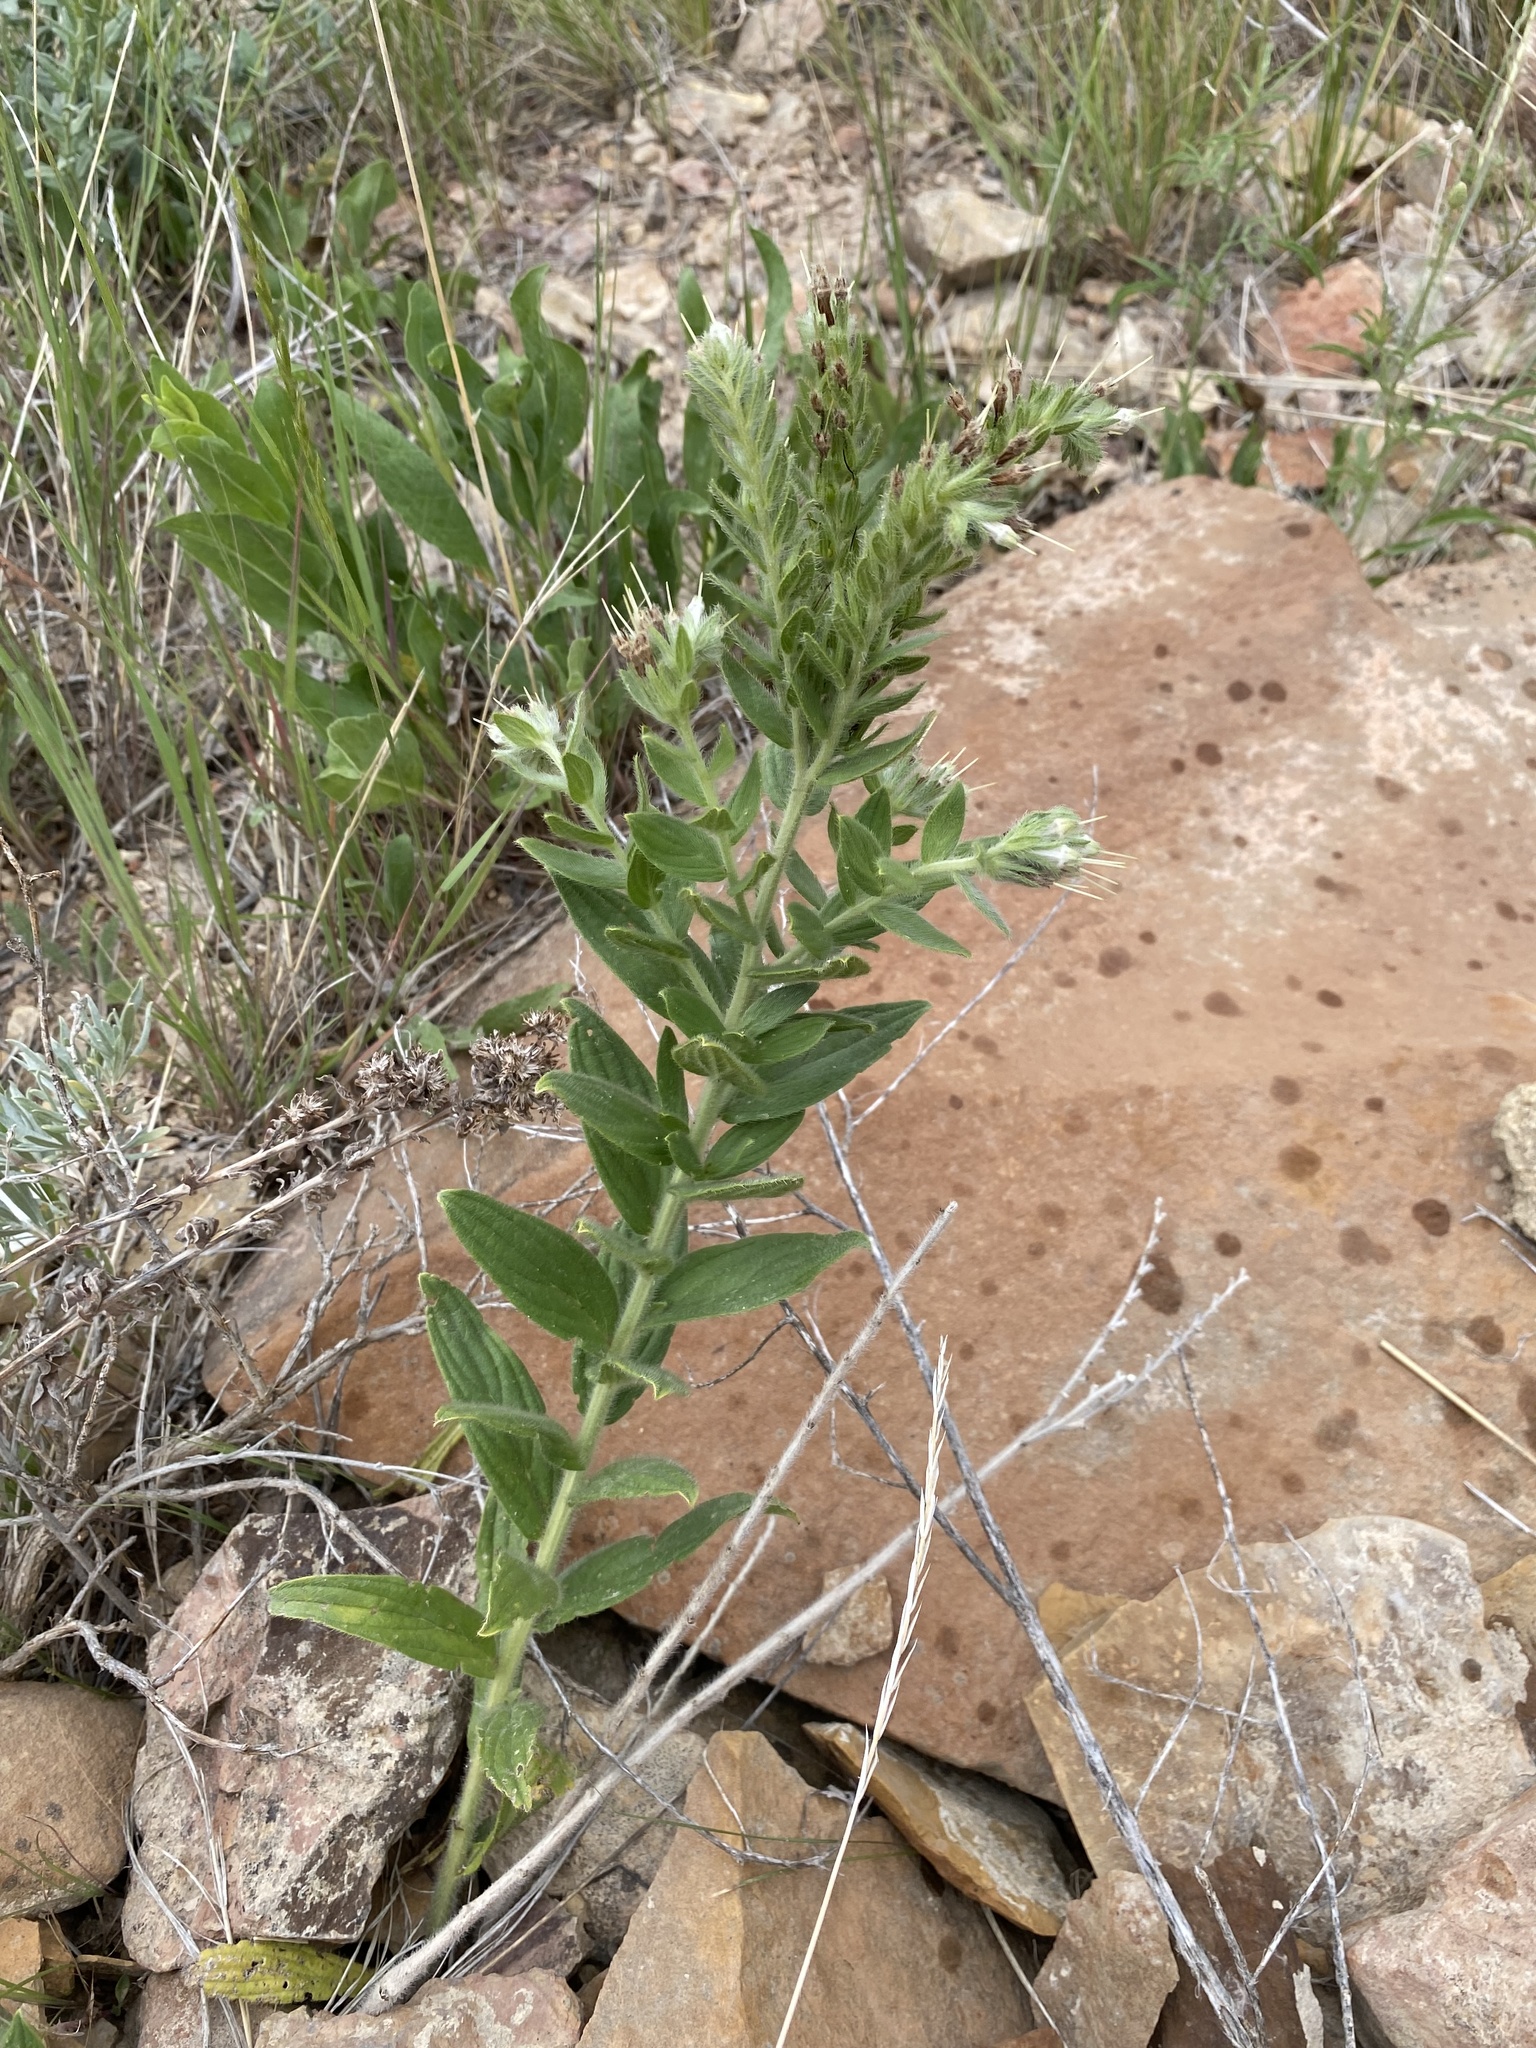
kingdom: Plantae
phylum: Tracheophyta
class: Magnoliopsida
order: Boraginales
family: Boraginaceae
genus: Lithospermum
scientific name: Lithospermum occidentale
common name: Western false gromwell
